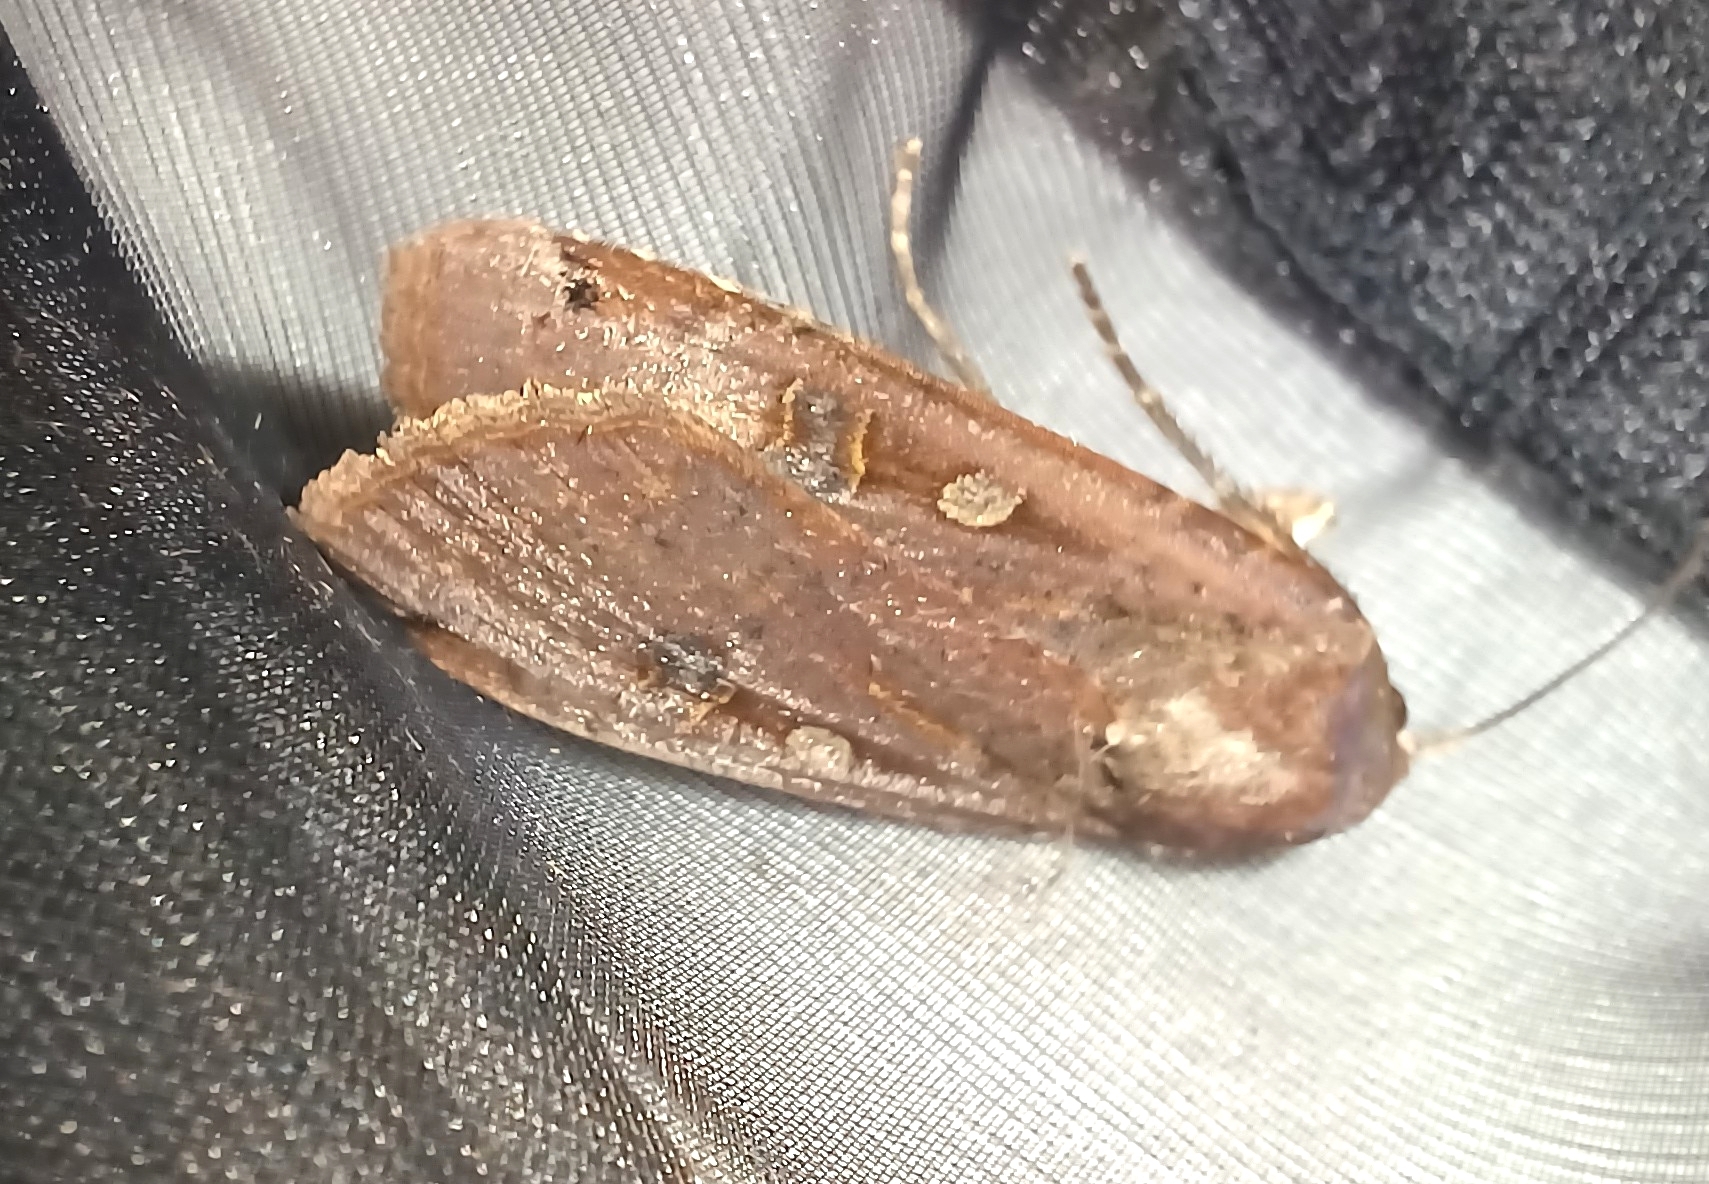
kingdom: Animalia
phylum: Arthropoda
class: Insecta
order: Lepidoptera
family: Noctuidae
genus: Noctua
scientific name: Noctua pronuba
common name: Large yellow underwing
